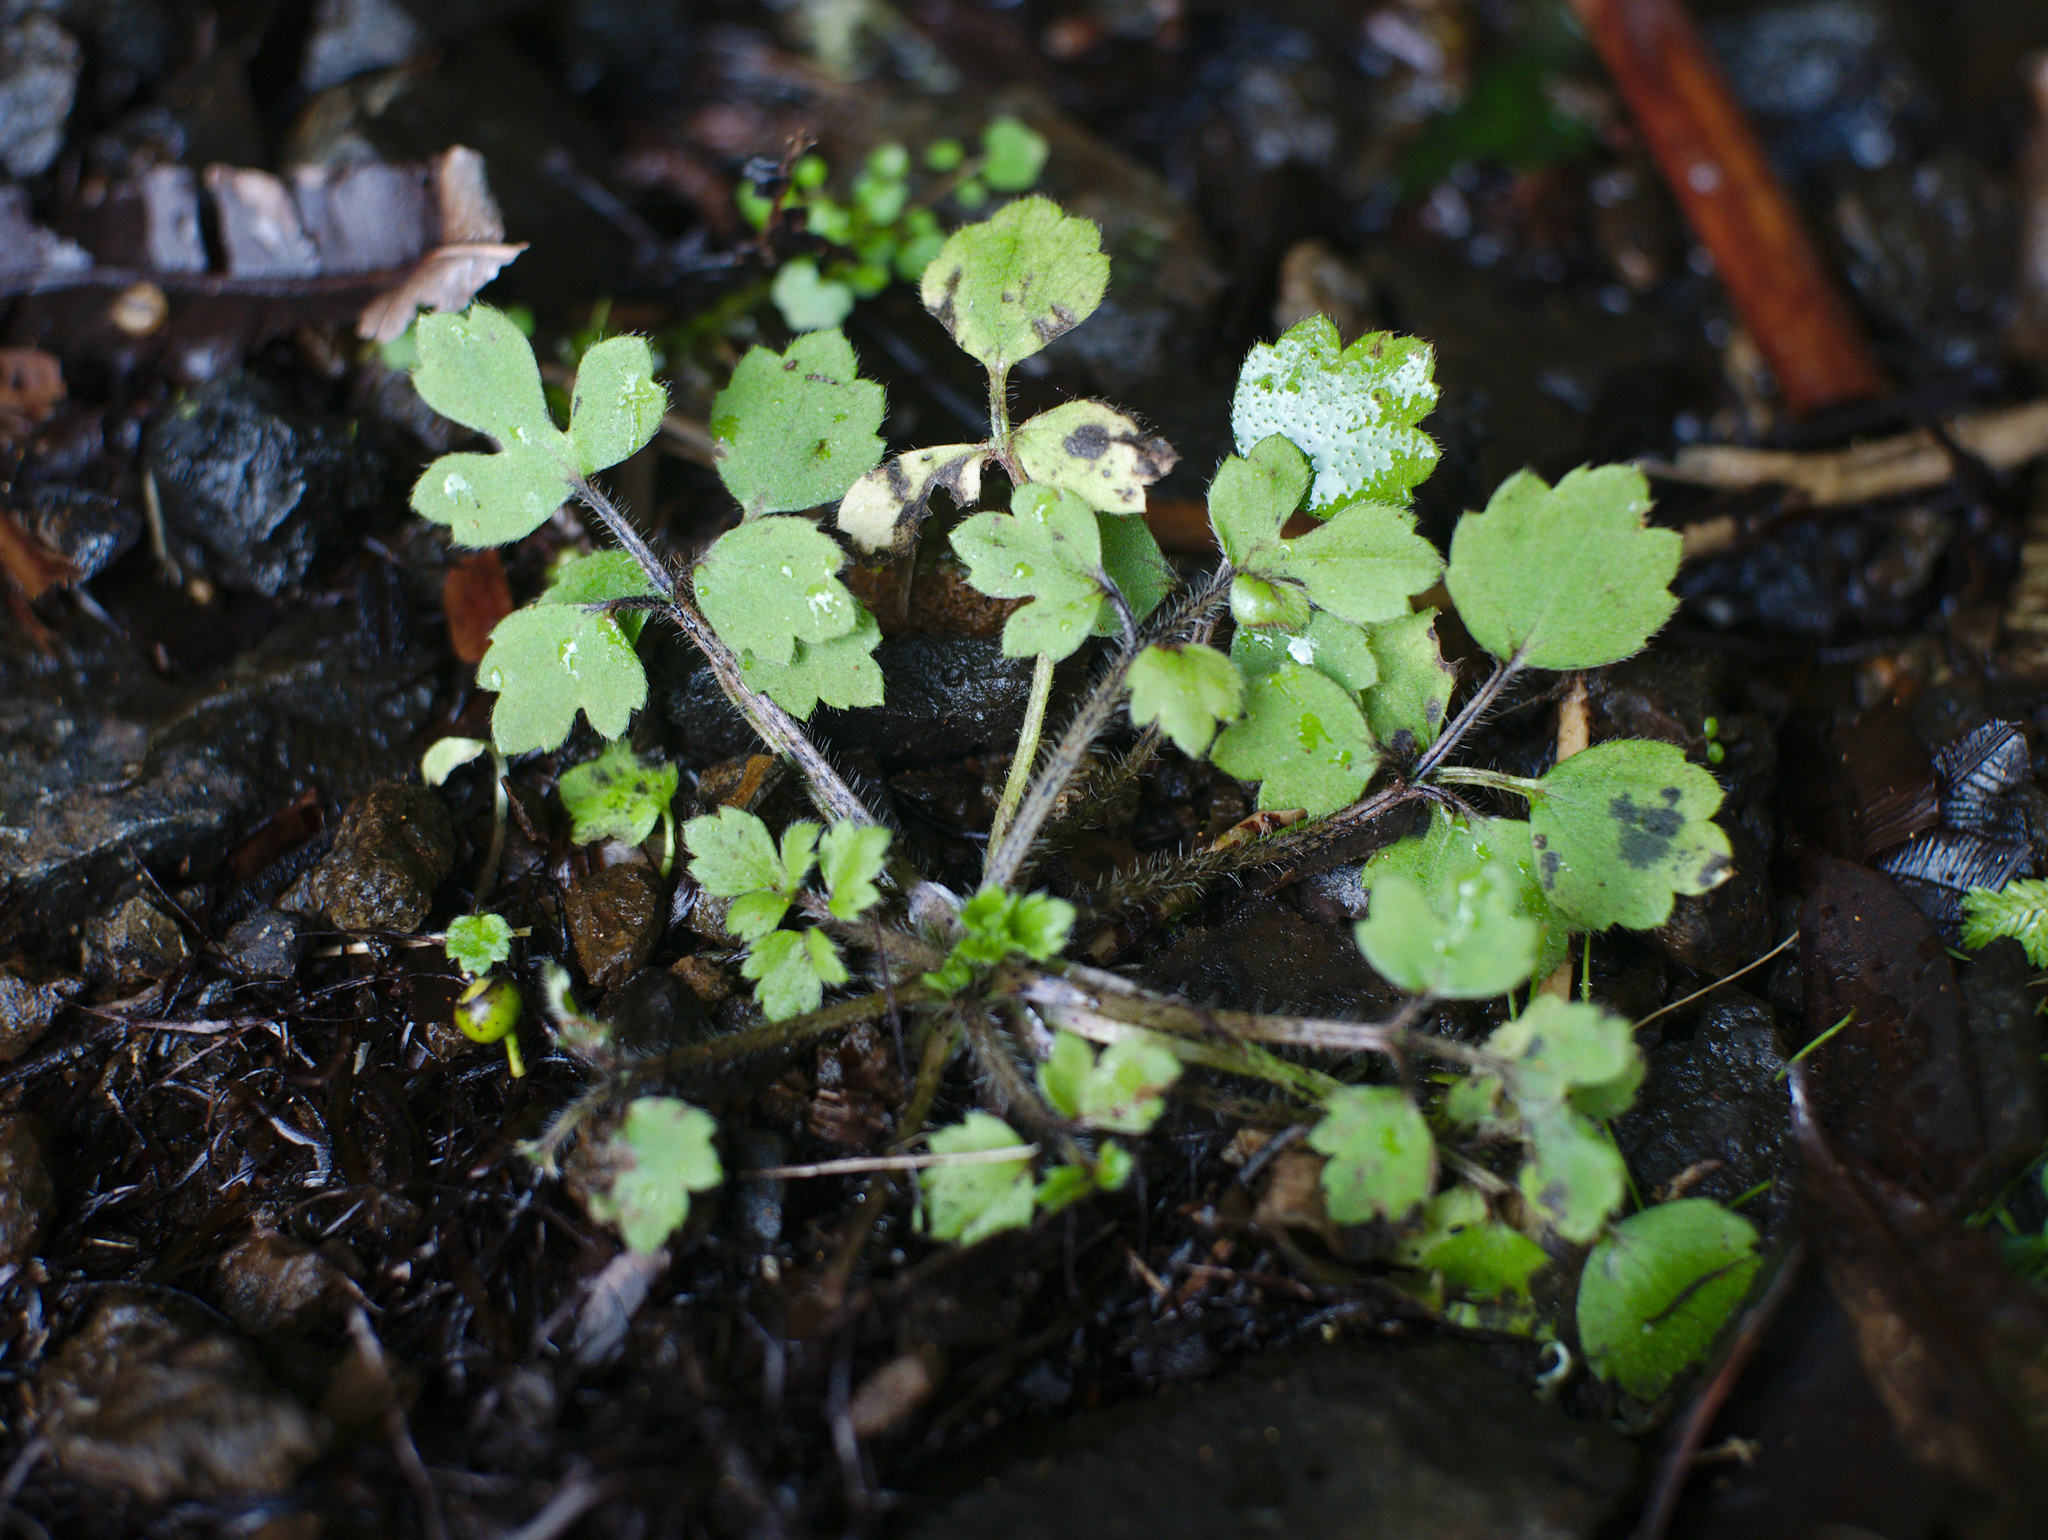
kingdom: Plantae
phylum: Tracheophyta
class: Magnoliopsida
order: Ranunculales
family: Ranunculaceae
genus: Ranunculus
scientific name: Ranunculus reflexus
